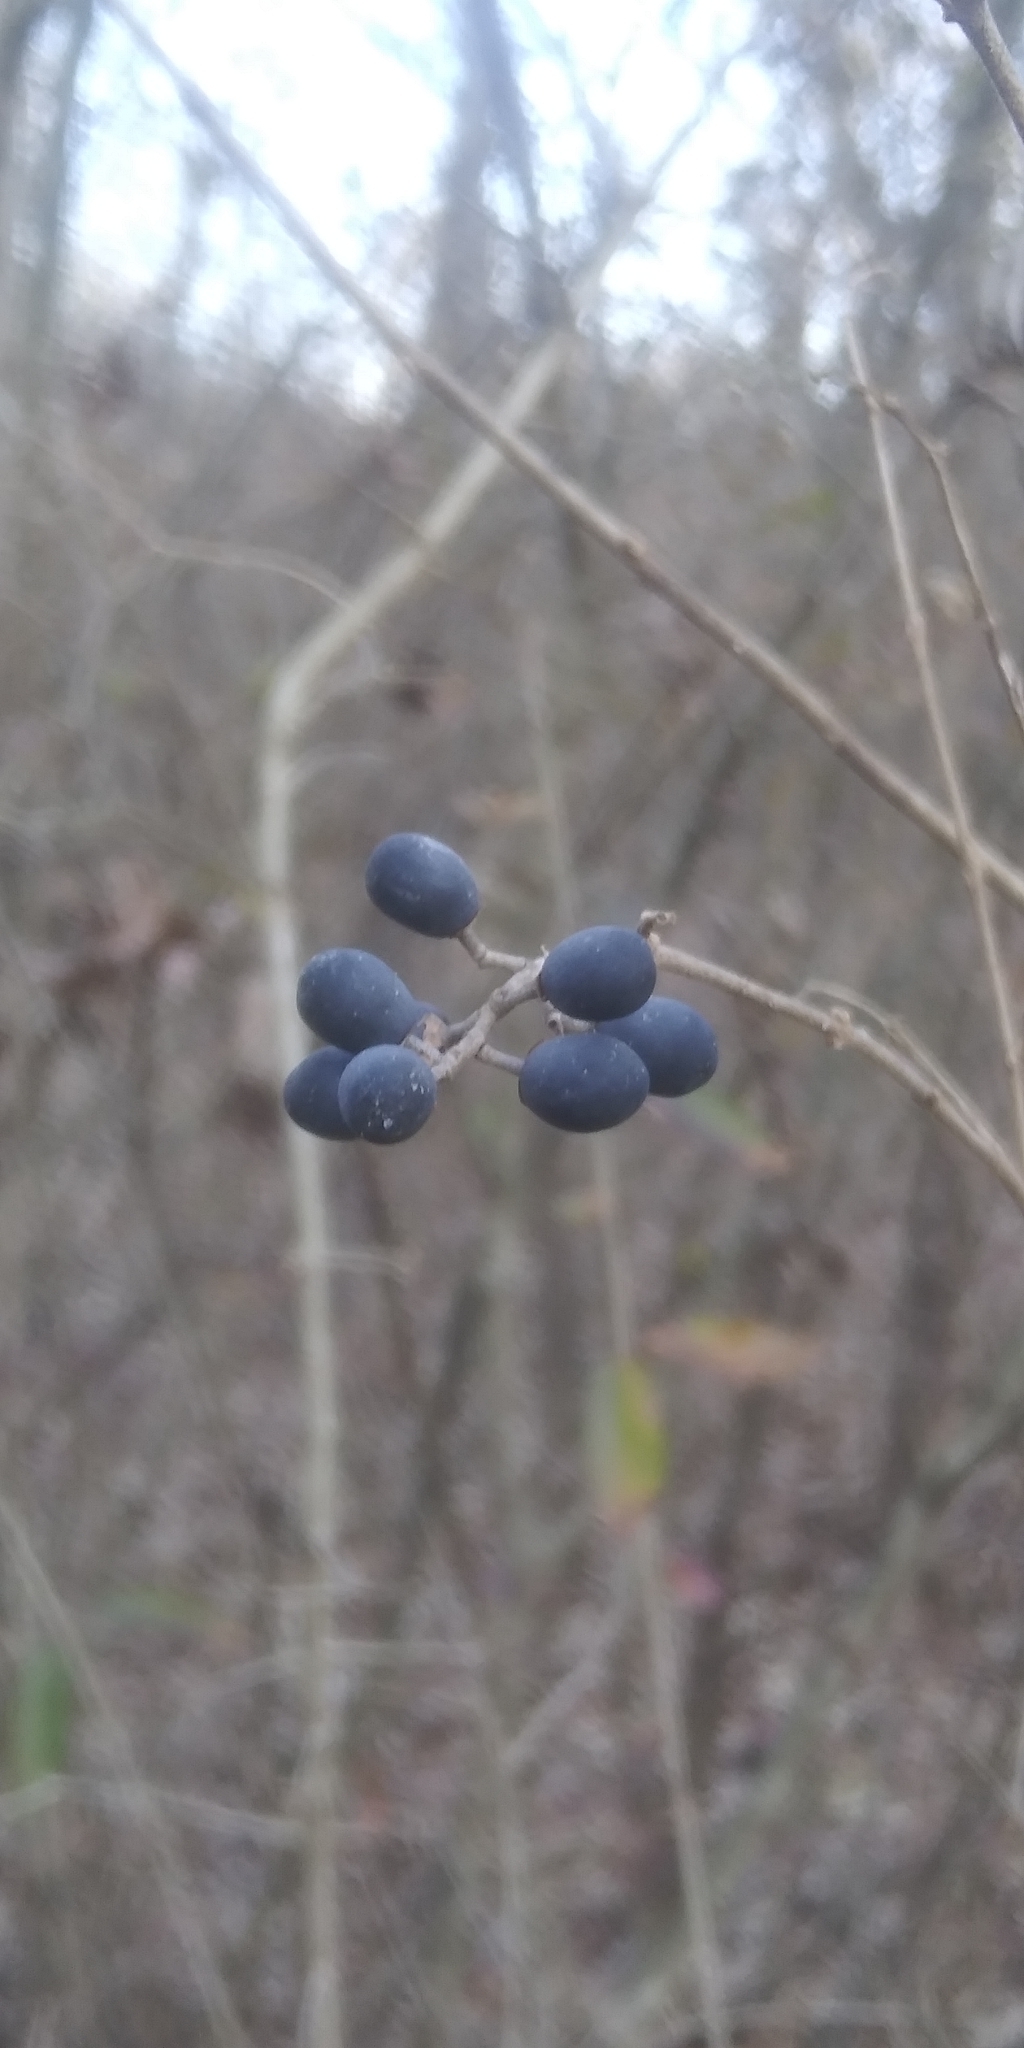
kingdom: Plantae
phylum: Tracheophyta
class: Magnoliopsida
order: Lamiales
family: Oleaceae
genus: Ligustrum
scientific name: Ligustrum quihoui
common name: Waxyleaf privet
